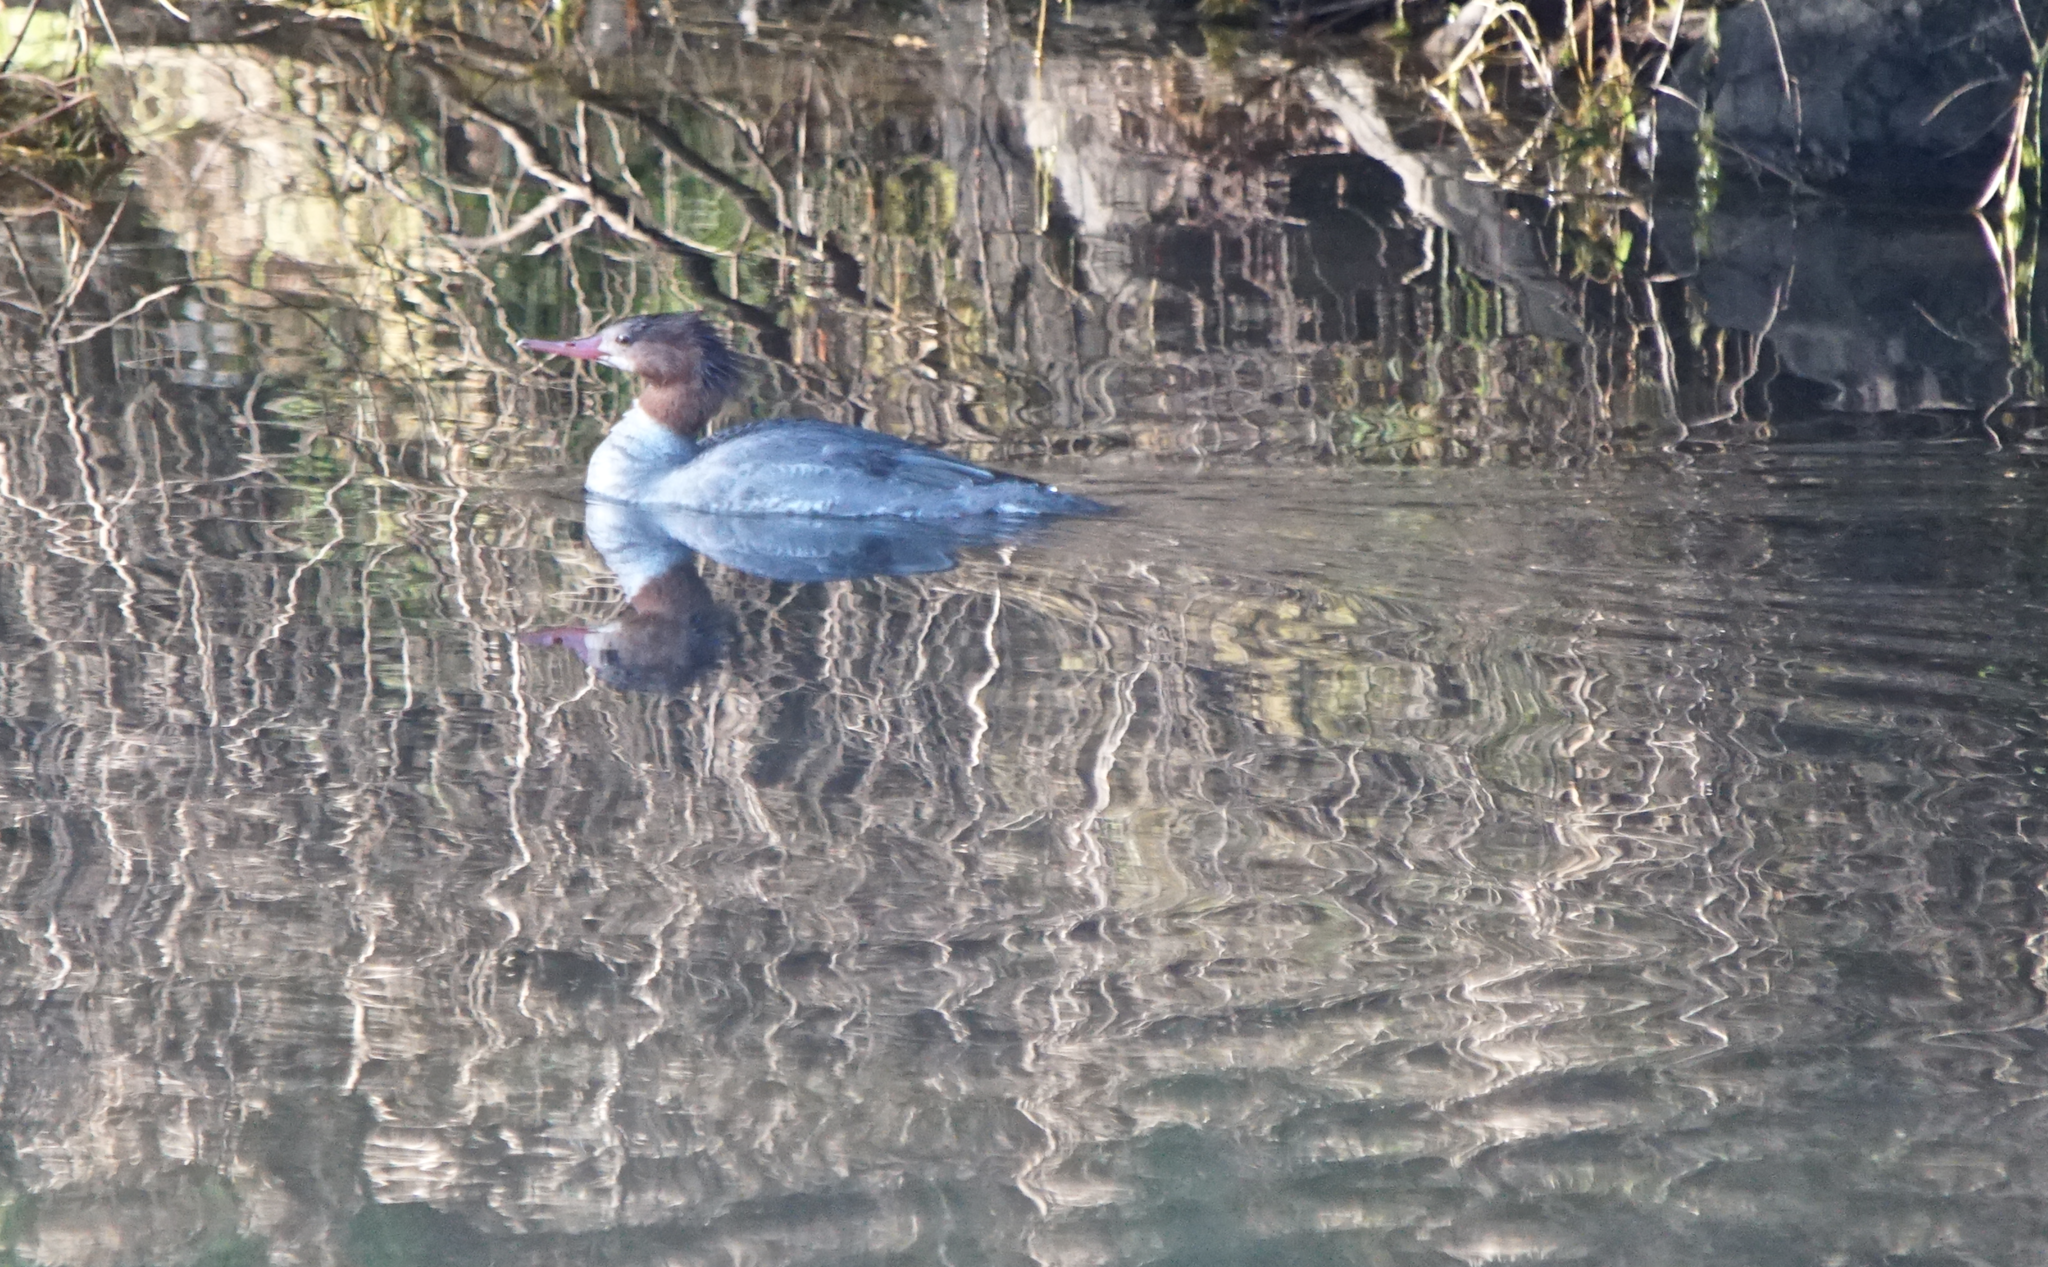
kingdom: Animalia
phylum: Chordata
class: Aves
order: Anseriformes
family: Anatidae
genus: Mergus
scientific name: Mergus merganser
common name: Common merganser
